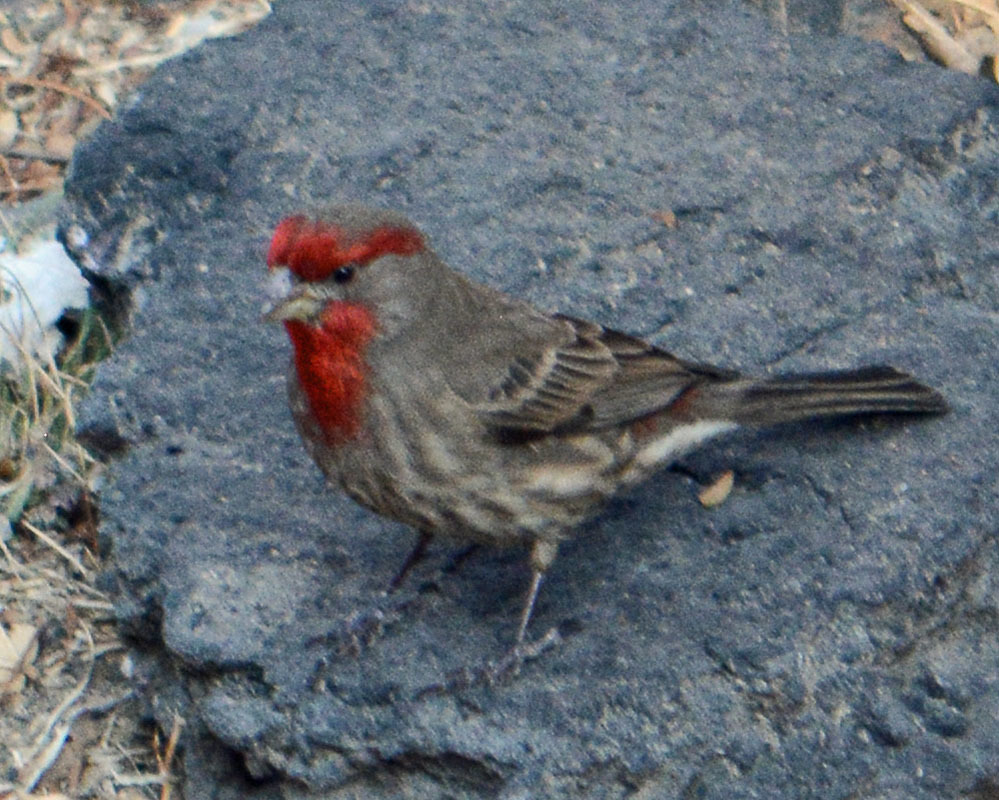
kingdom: Animalia
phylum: Chordata
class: Aves
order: Passeriformes
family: Fringillidae
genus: Haemorhous
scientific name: Haemorhous mexicanus
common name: House finch
